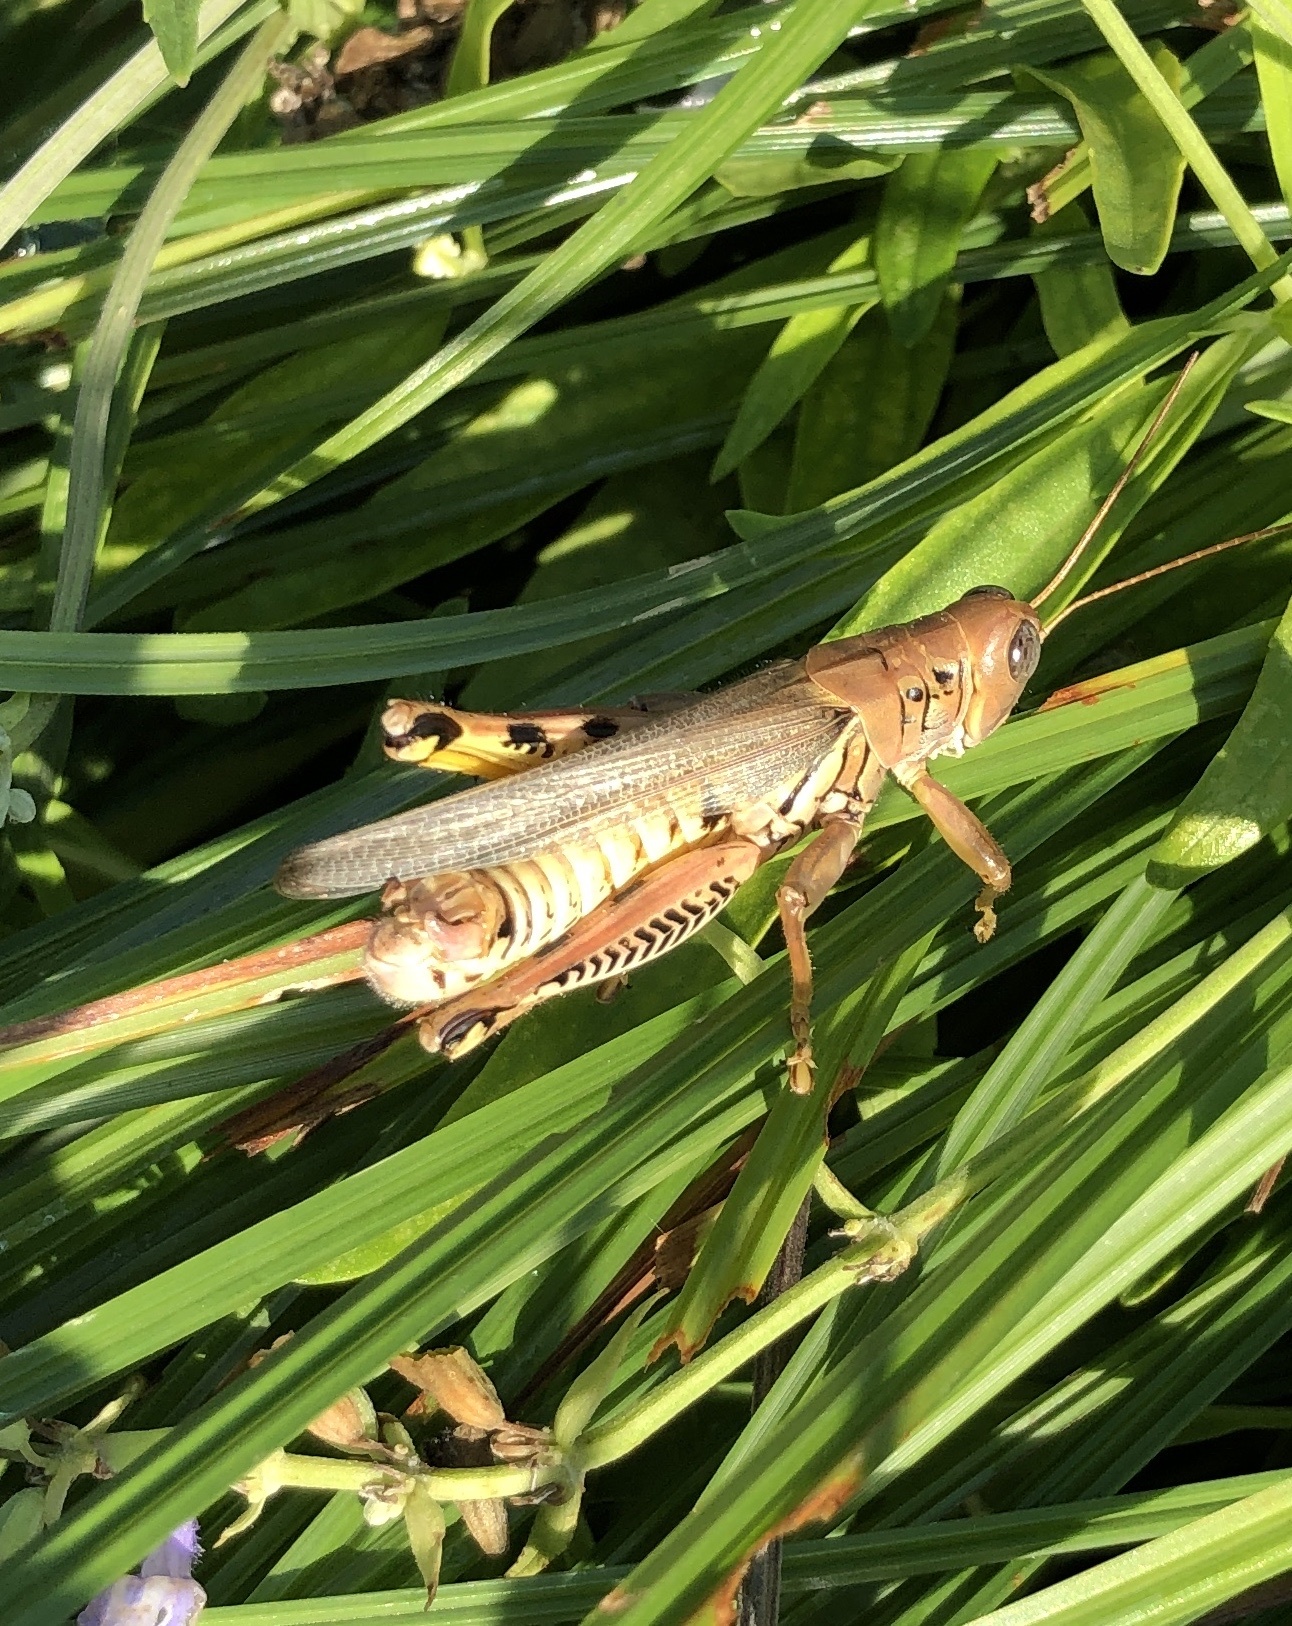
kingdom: Animalia
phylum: Arthropoda
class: Insecta
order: Orthoptera
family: Acrididae
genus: Melanoplus
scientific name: Melanoplus differentialis
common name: Differential grasshopper
